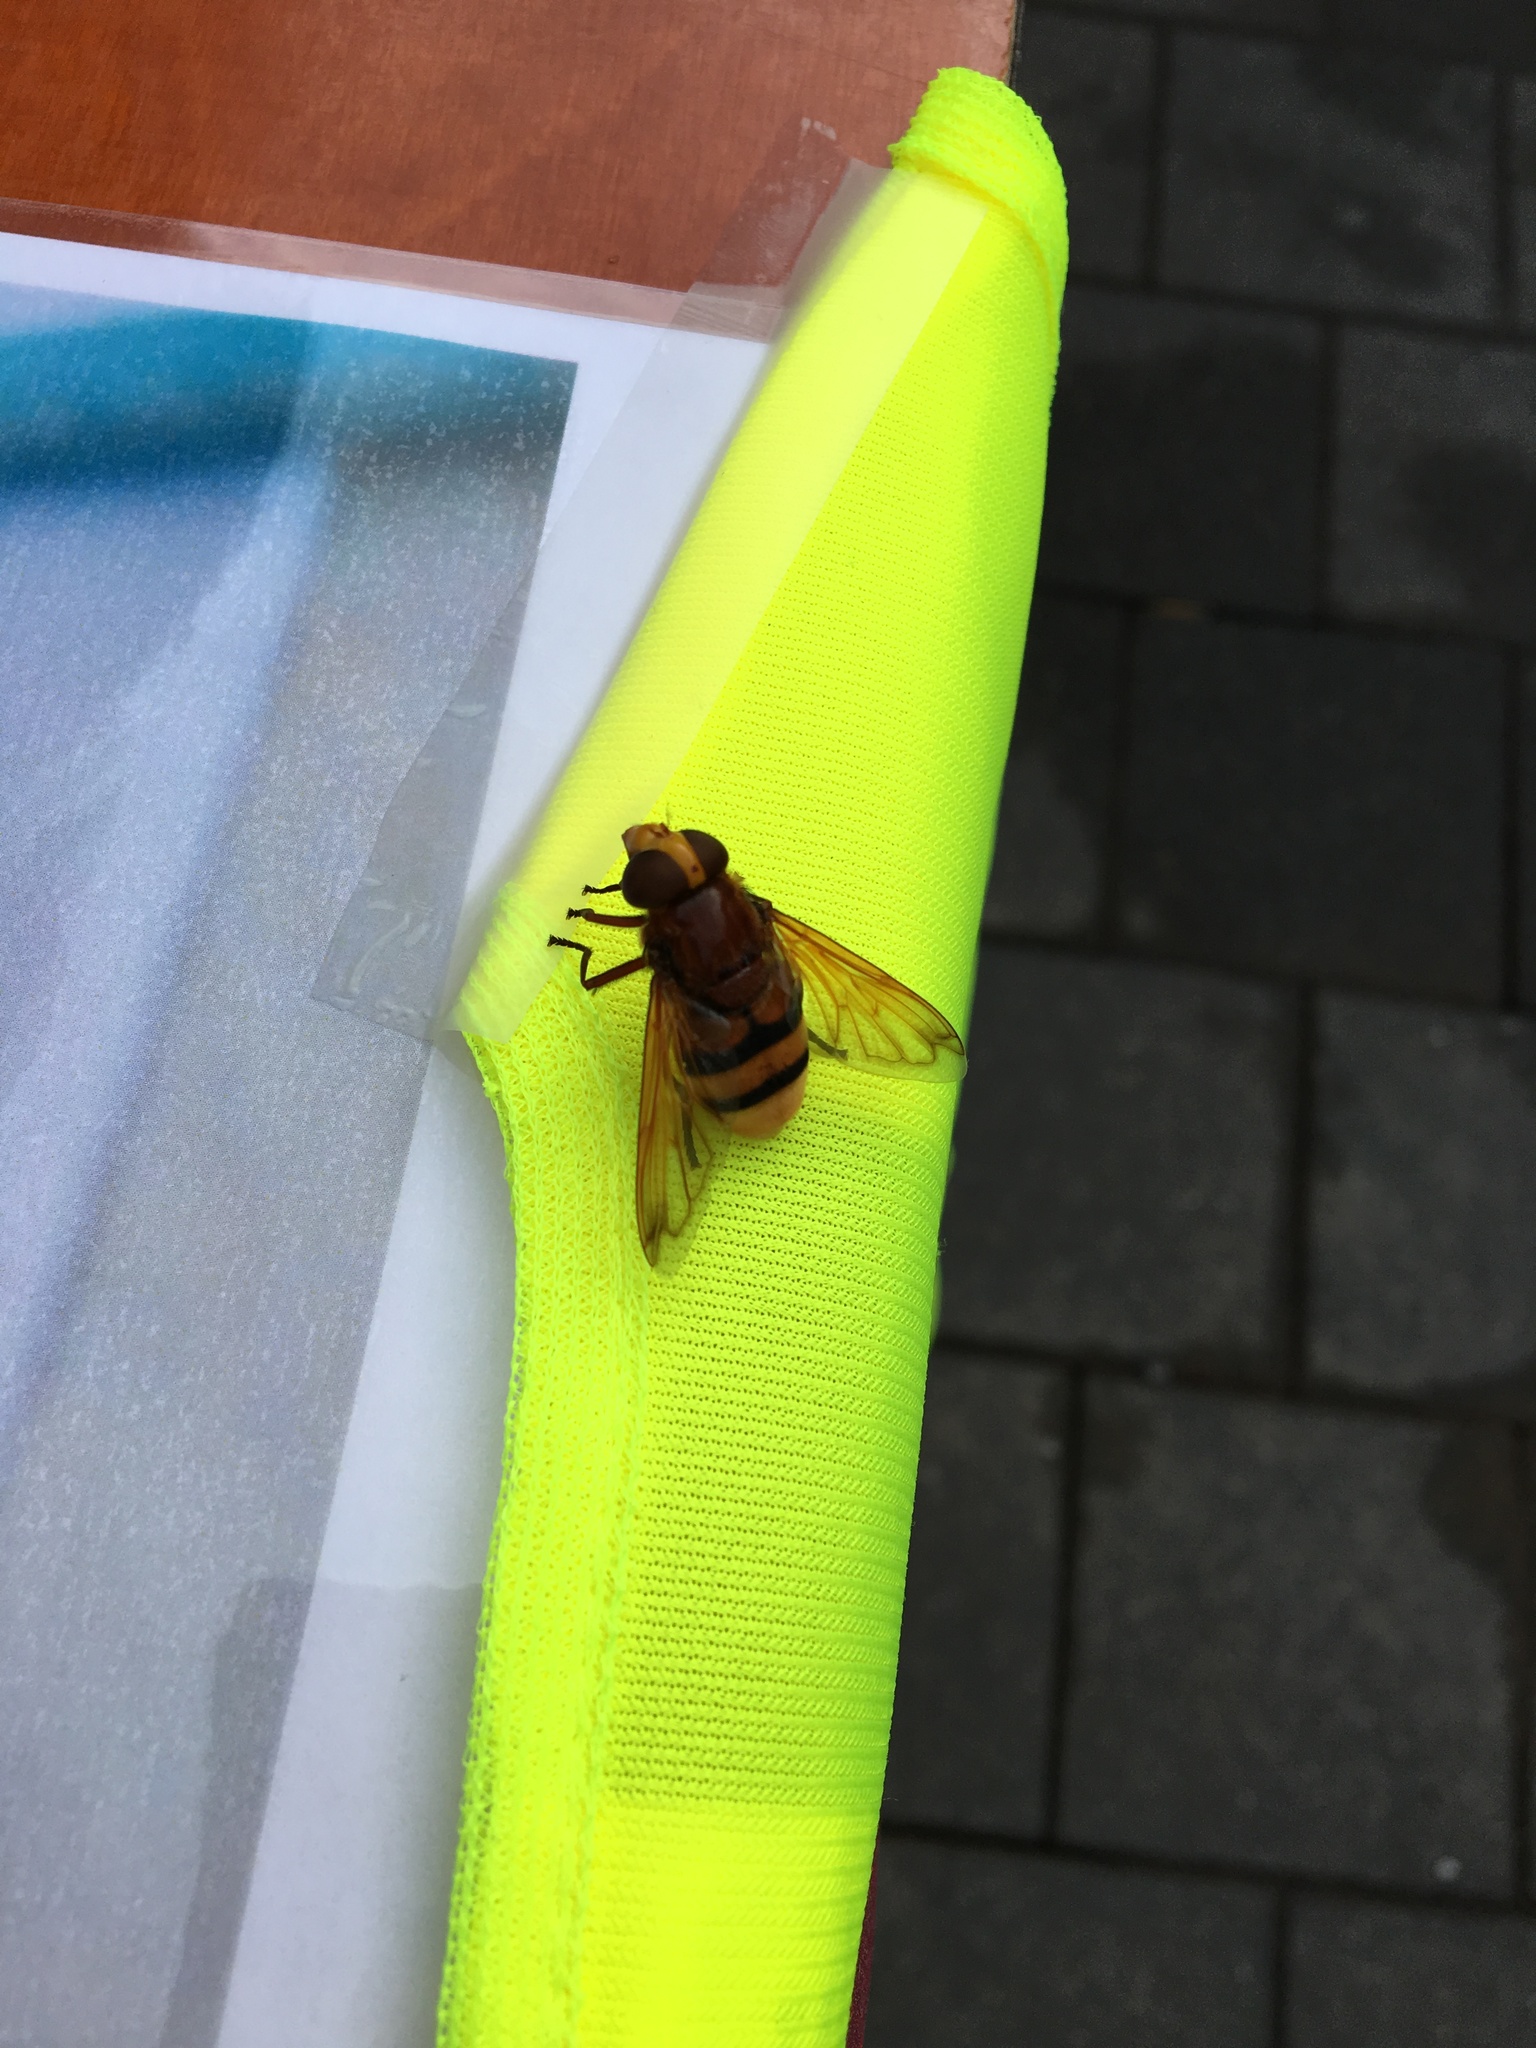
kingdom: Animalia
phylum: Arthropoda
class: Insecta
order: Diptera
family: Syrphidae
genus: Volucella
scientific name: Volucella zonaria
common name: Hornet hoverfly
